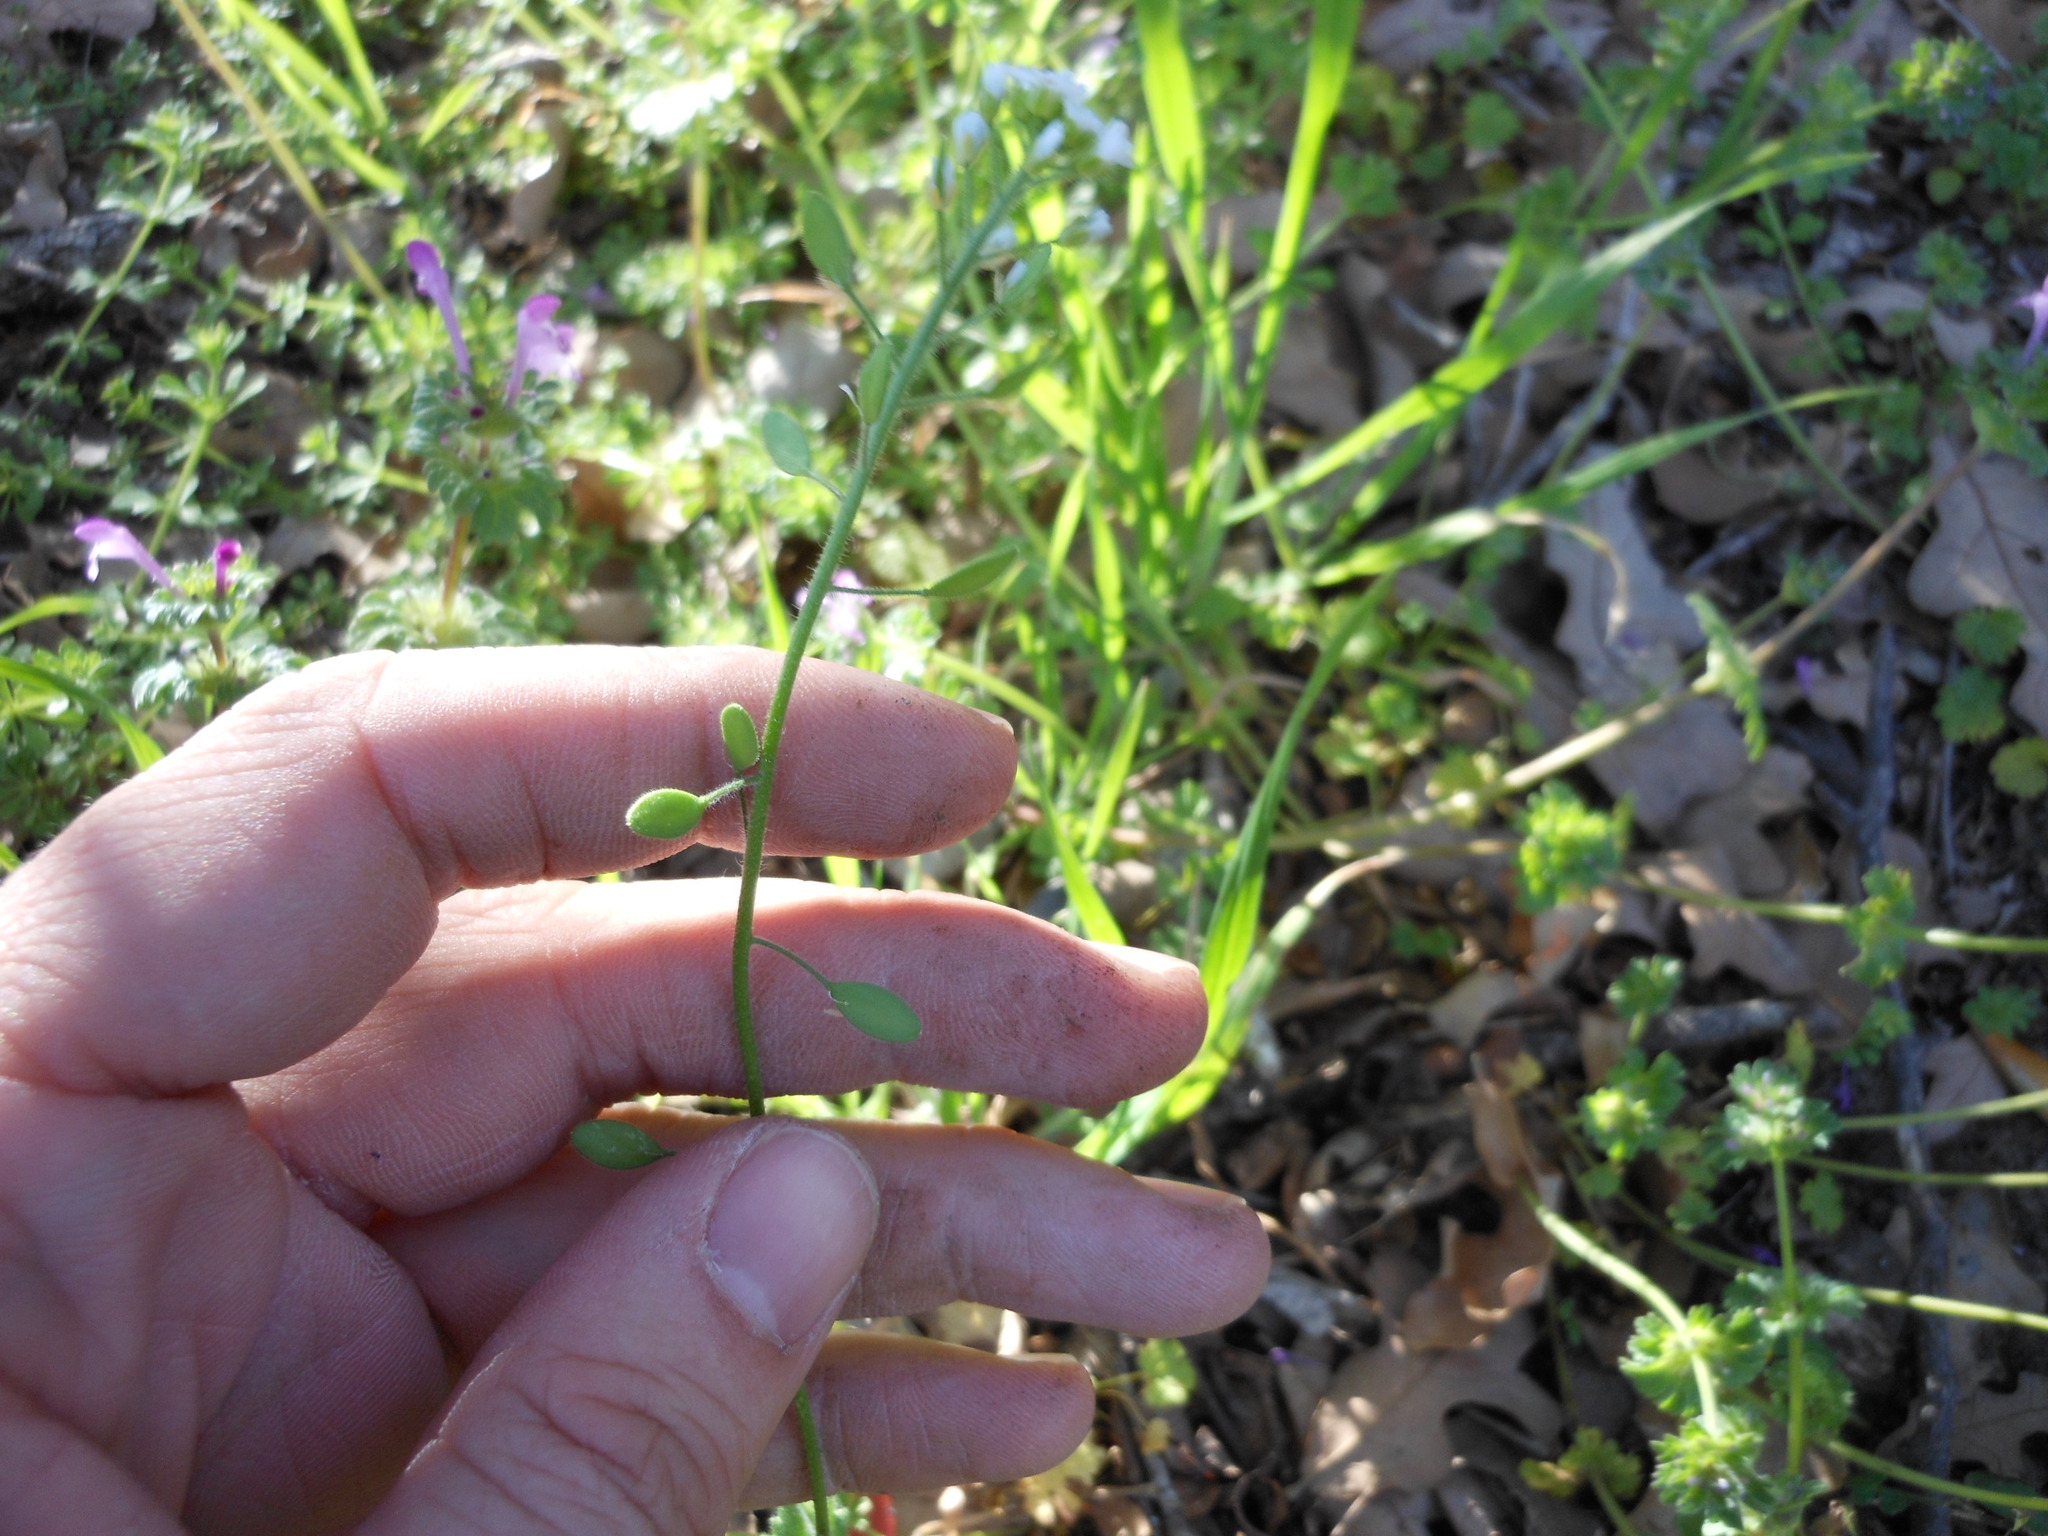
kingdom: Plantae
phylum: Tracheophyta
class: Magnoliopsida
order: Brassicales
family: Brassicaceae
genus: Tomostima
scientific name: Tomostima platycarpa
